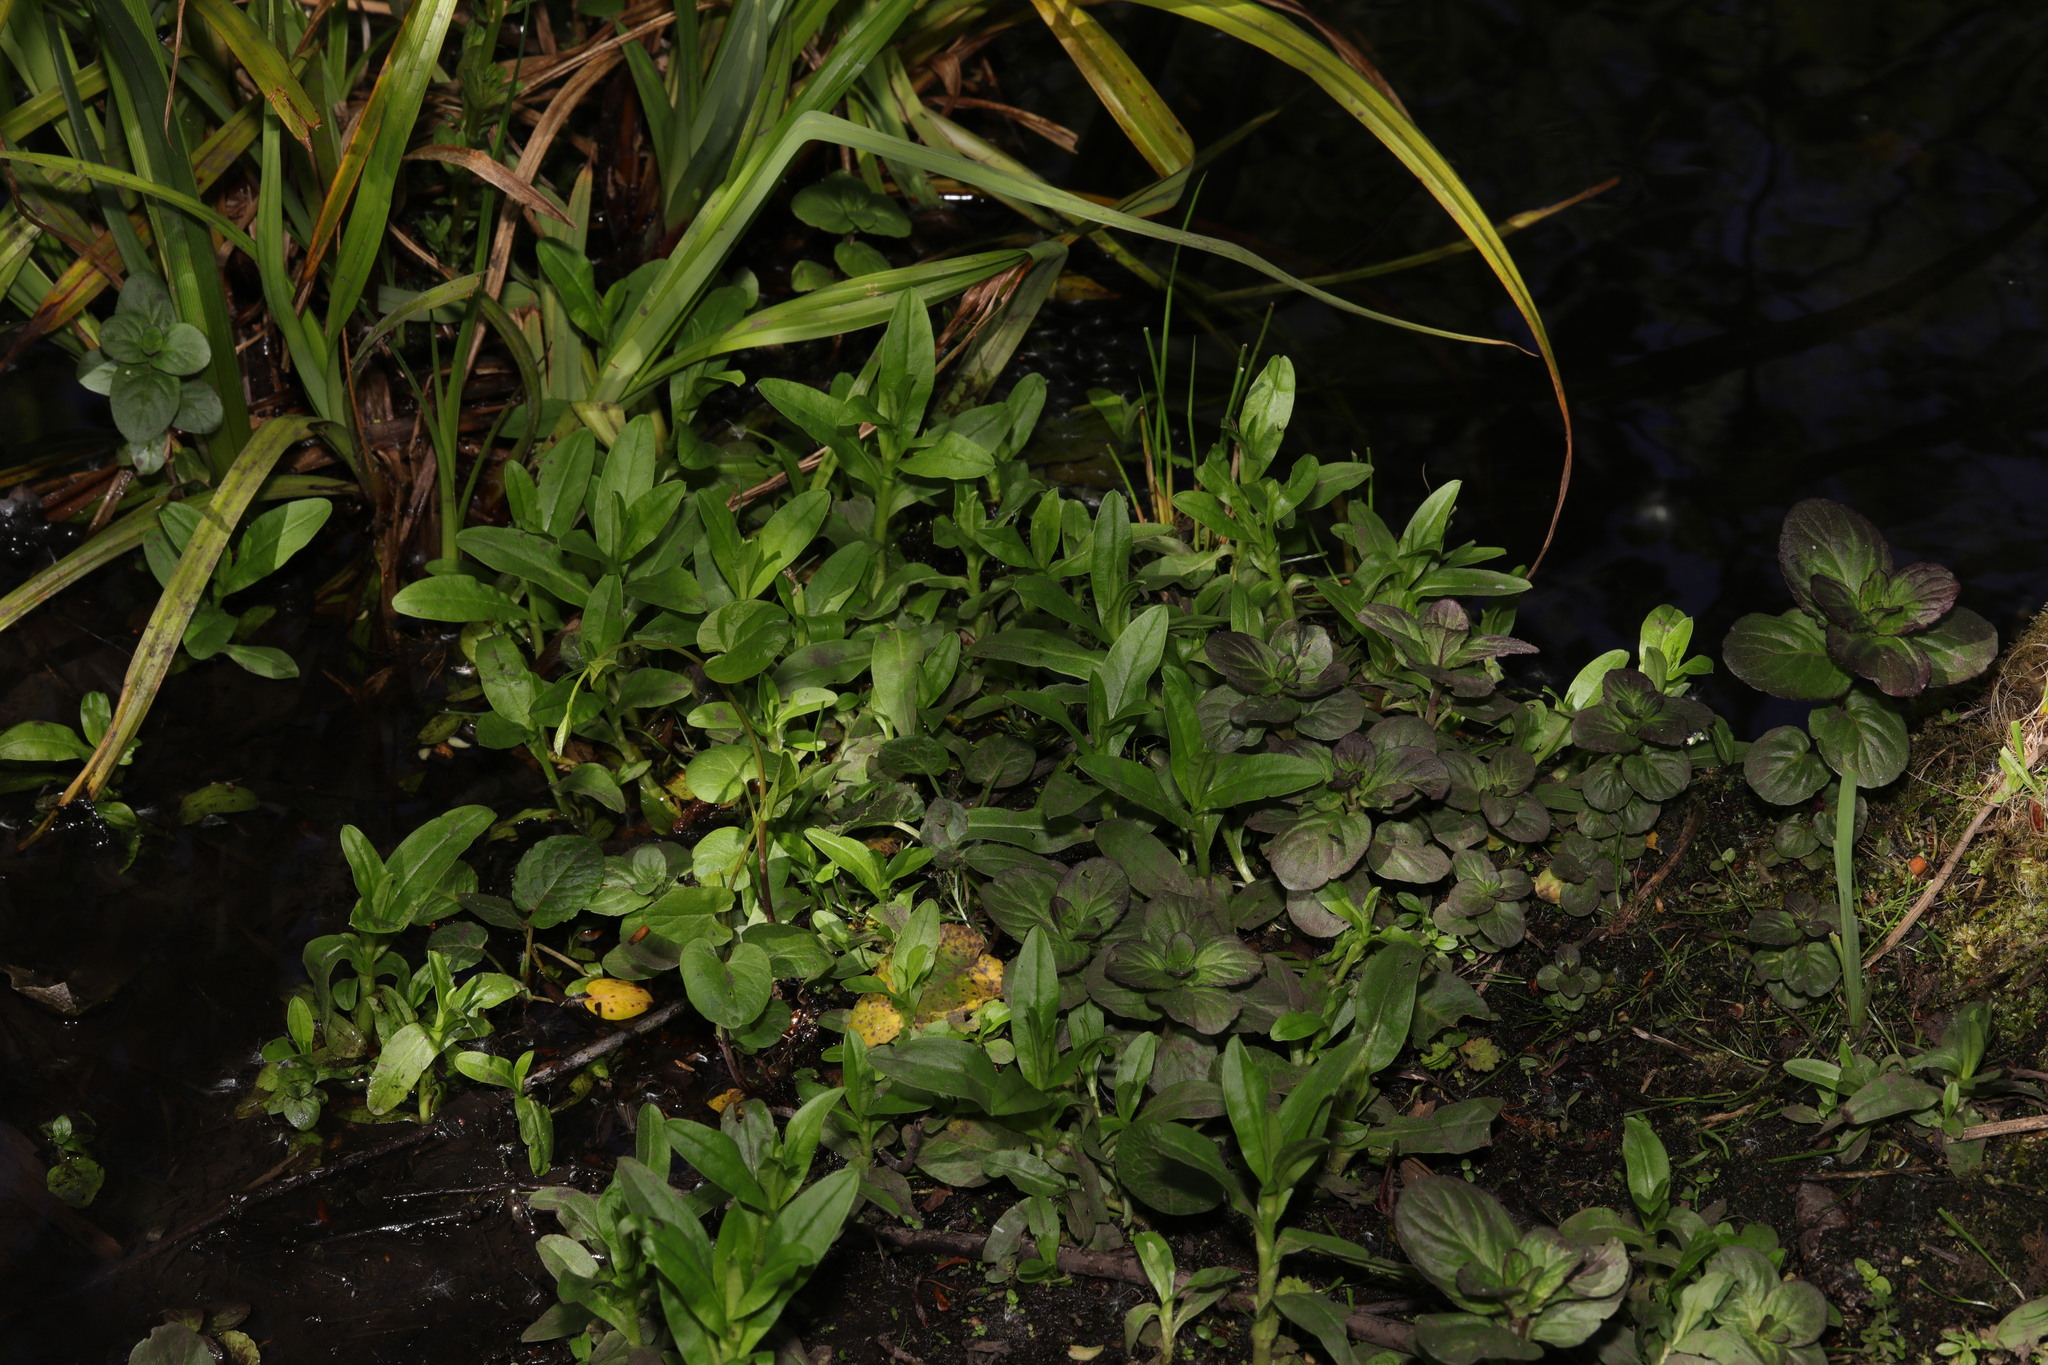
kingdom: Plantae
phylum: Tracheophyta
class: Magnoliopsida
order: Boraginales
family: Boraginaceae
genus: Myosotis
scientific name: Myosotis scorpioides
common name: Water forget-me-not
